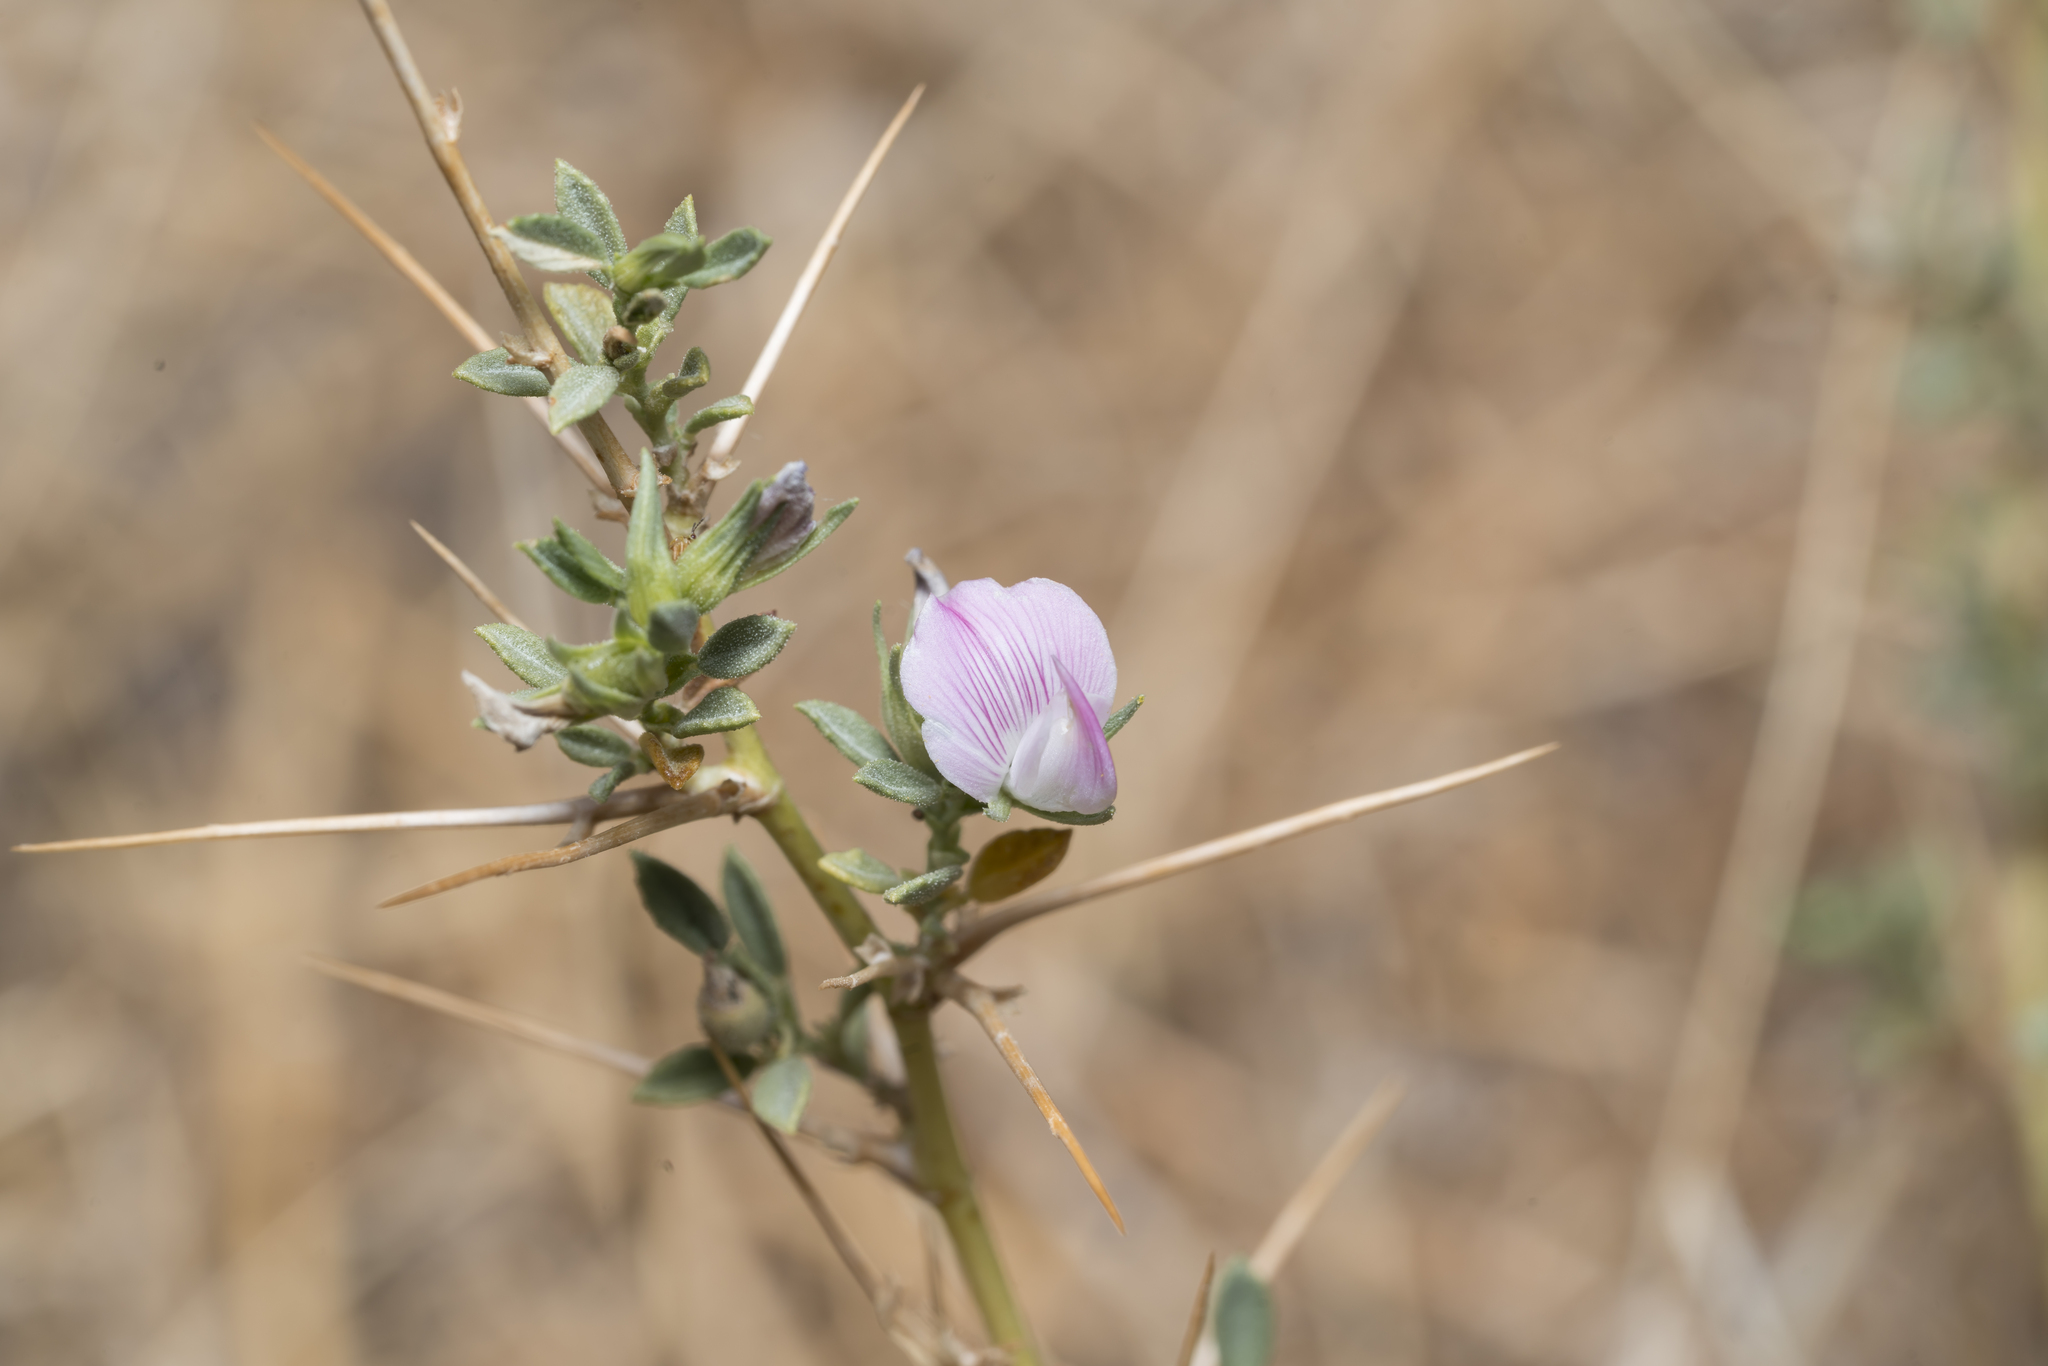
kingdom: Plantae
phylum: Tracheophyta
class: Magnoliopsida
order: Fabales
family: Fabaceae
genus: Ononis
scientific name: Ononis spinosa
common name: Spiny restharrow
